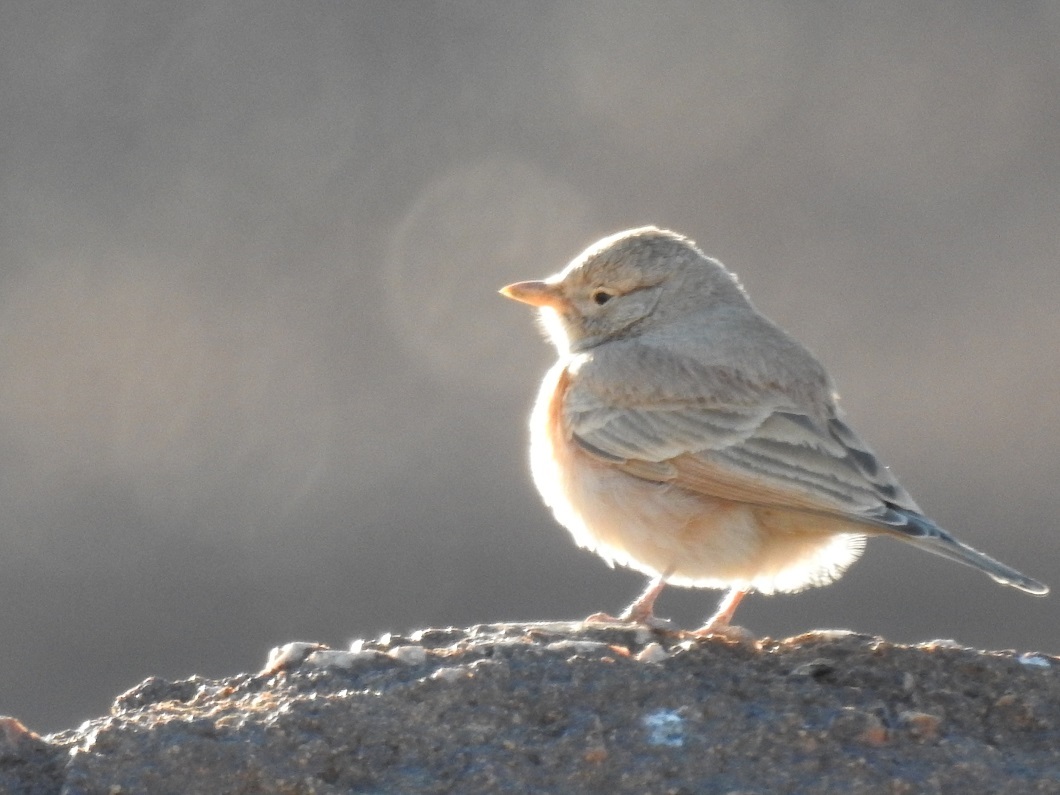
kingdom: Animalia
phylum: Chordata
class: Aves
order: Passeriformes
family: Alaudidae
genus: Ammomanes
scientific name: Ammomanes deserti
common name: Desert lark
